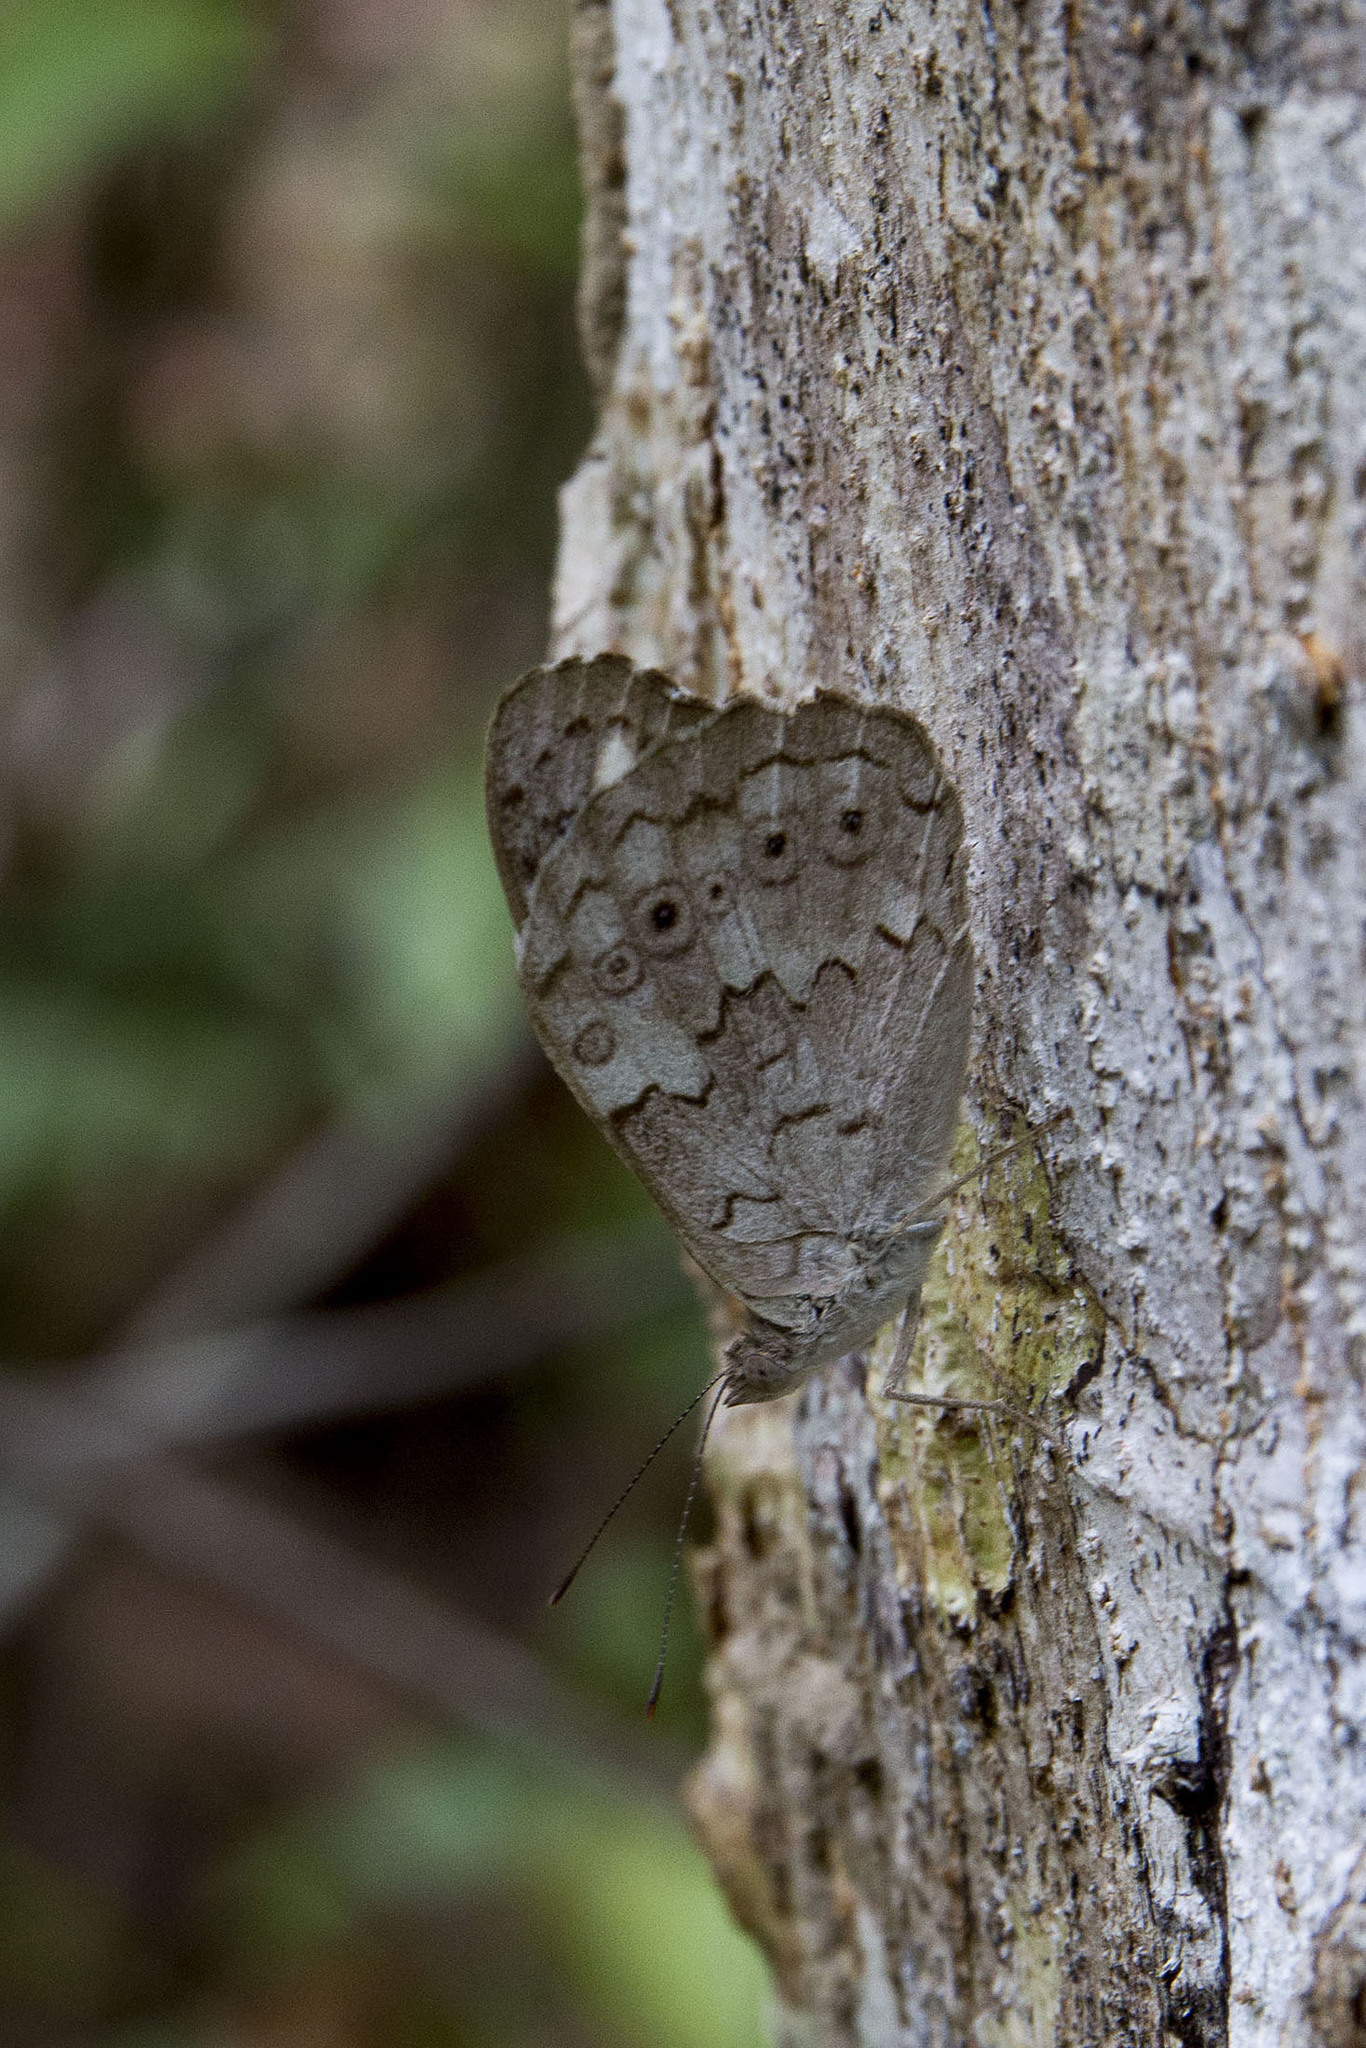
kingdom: Animalia
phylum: Arthropoda
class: Insecta
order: Lepidoptera
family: Nymphalidae
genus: Eunica
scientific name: Eunica macris
